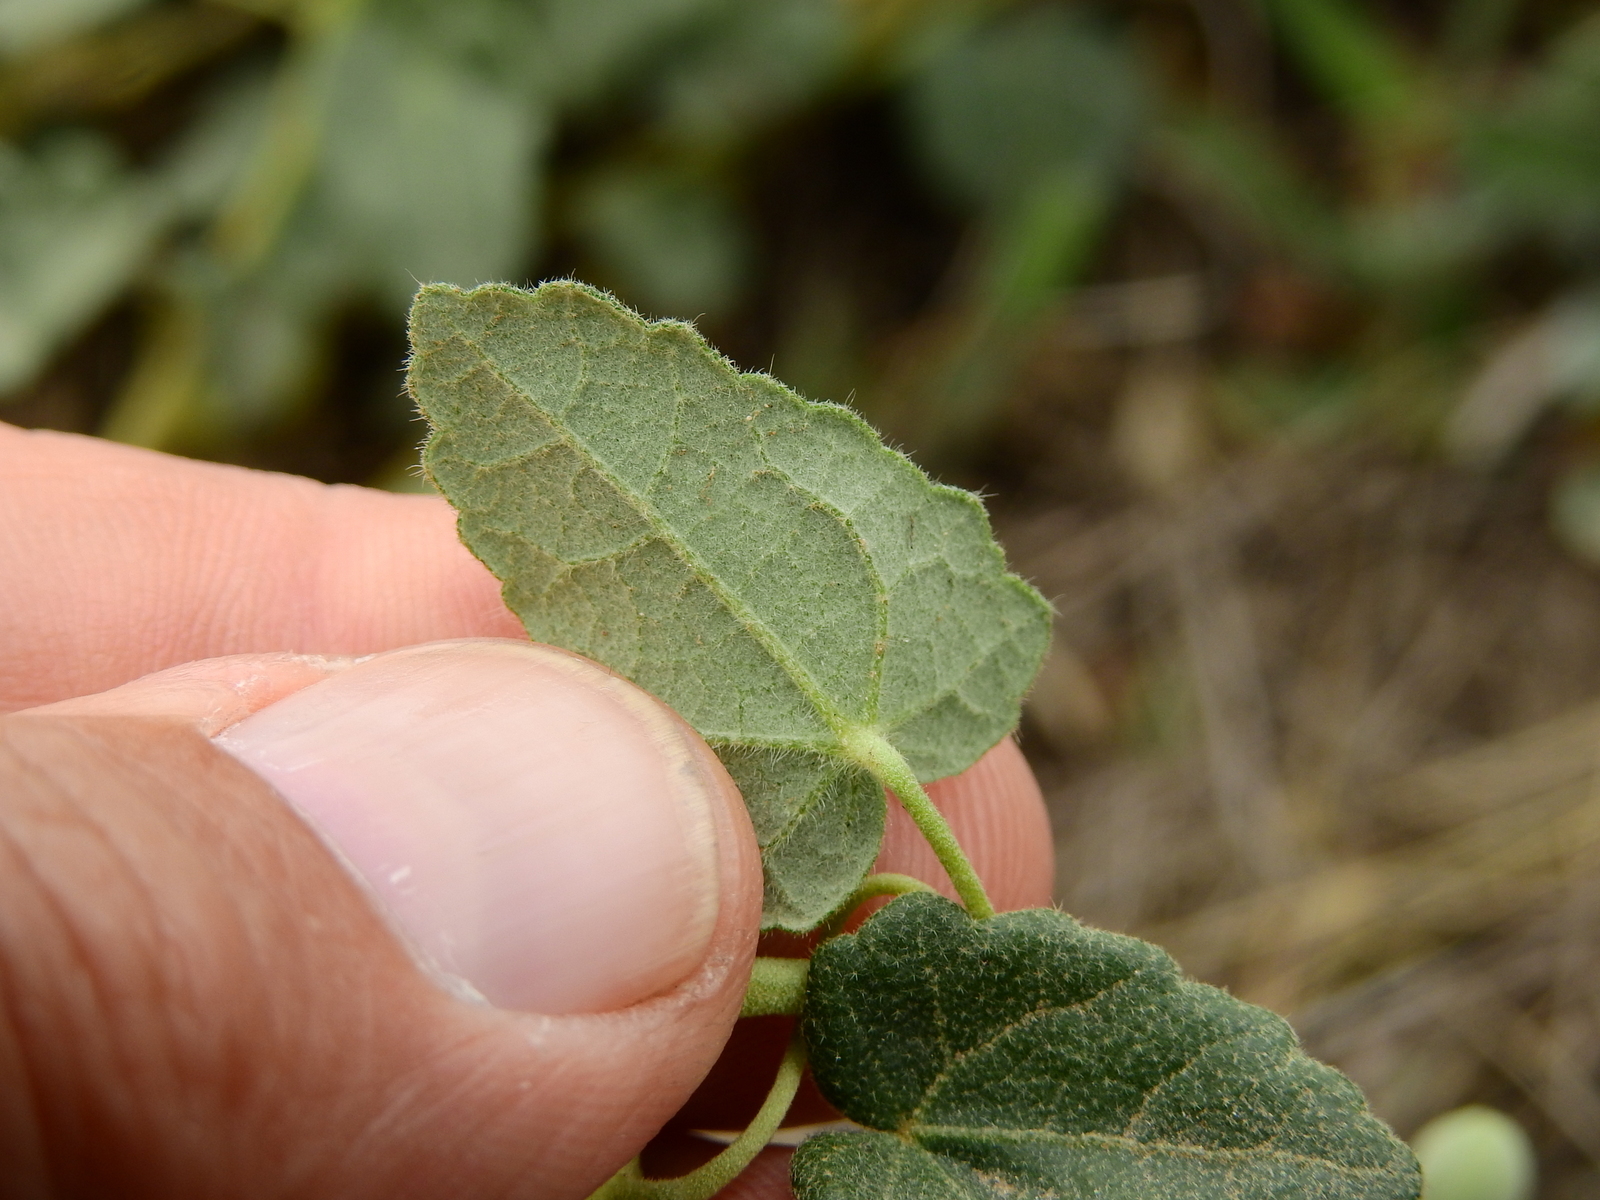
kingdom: Plantae
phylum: Tracheophyta
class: Magnoliopsida
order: Malvales
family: Malvaceae
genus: Pavonia
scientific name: Pavonia aurigloba
